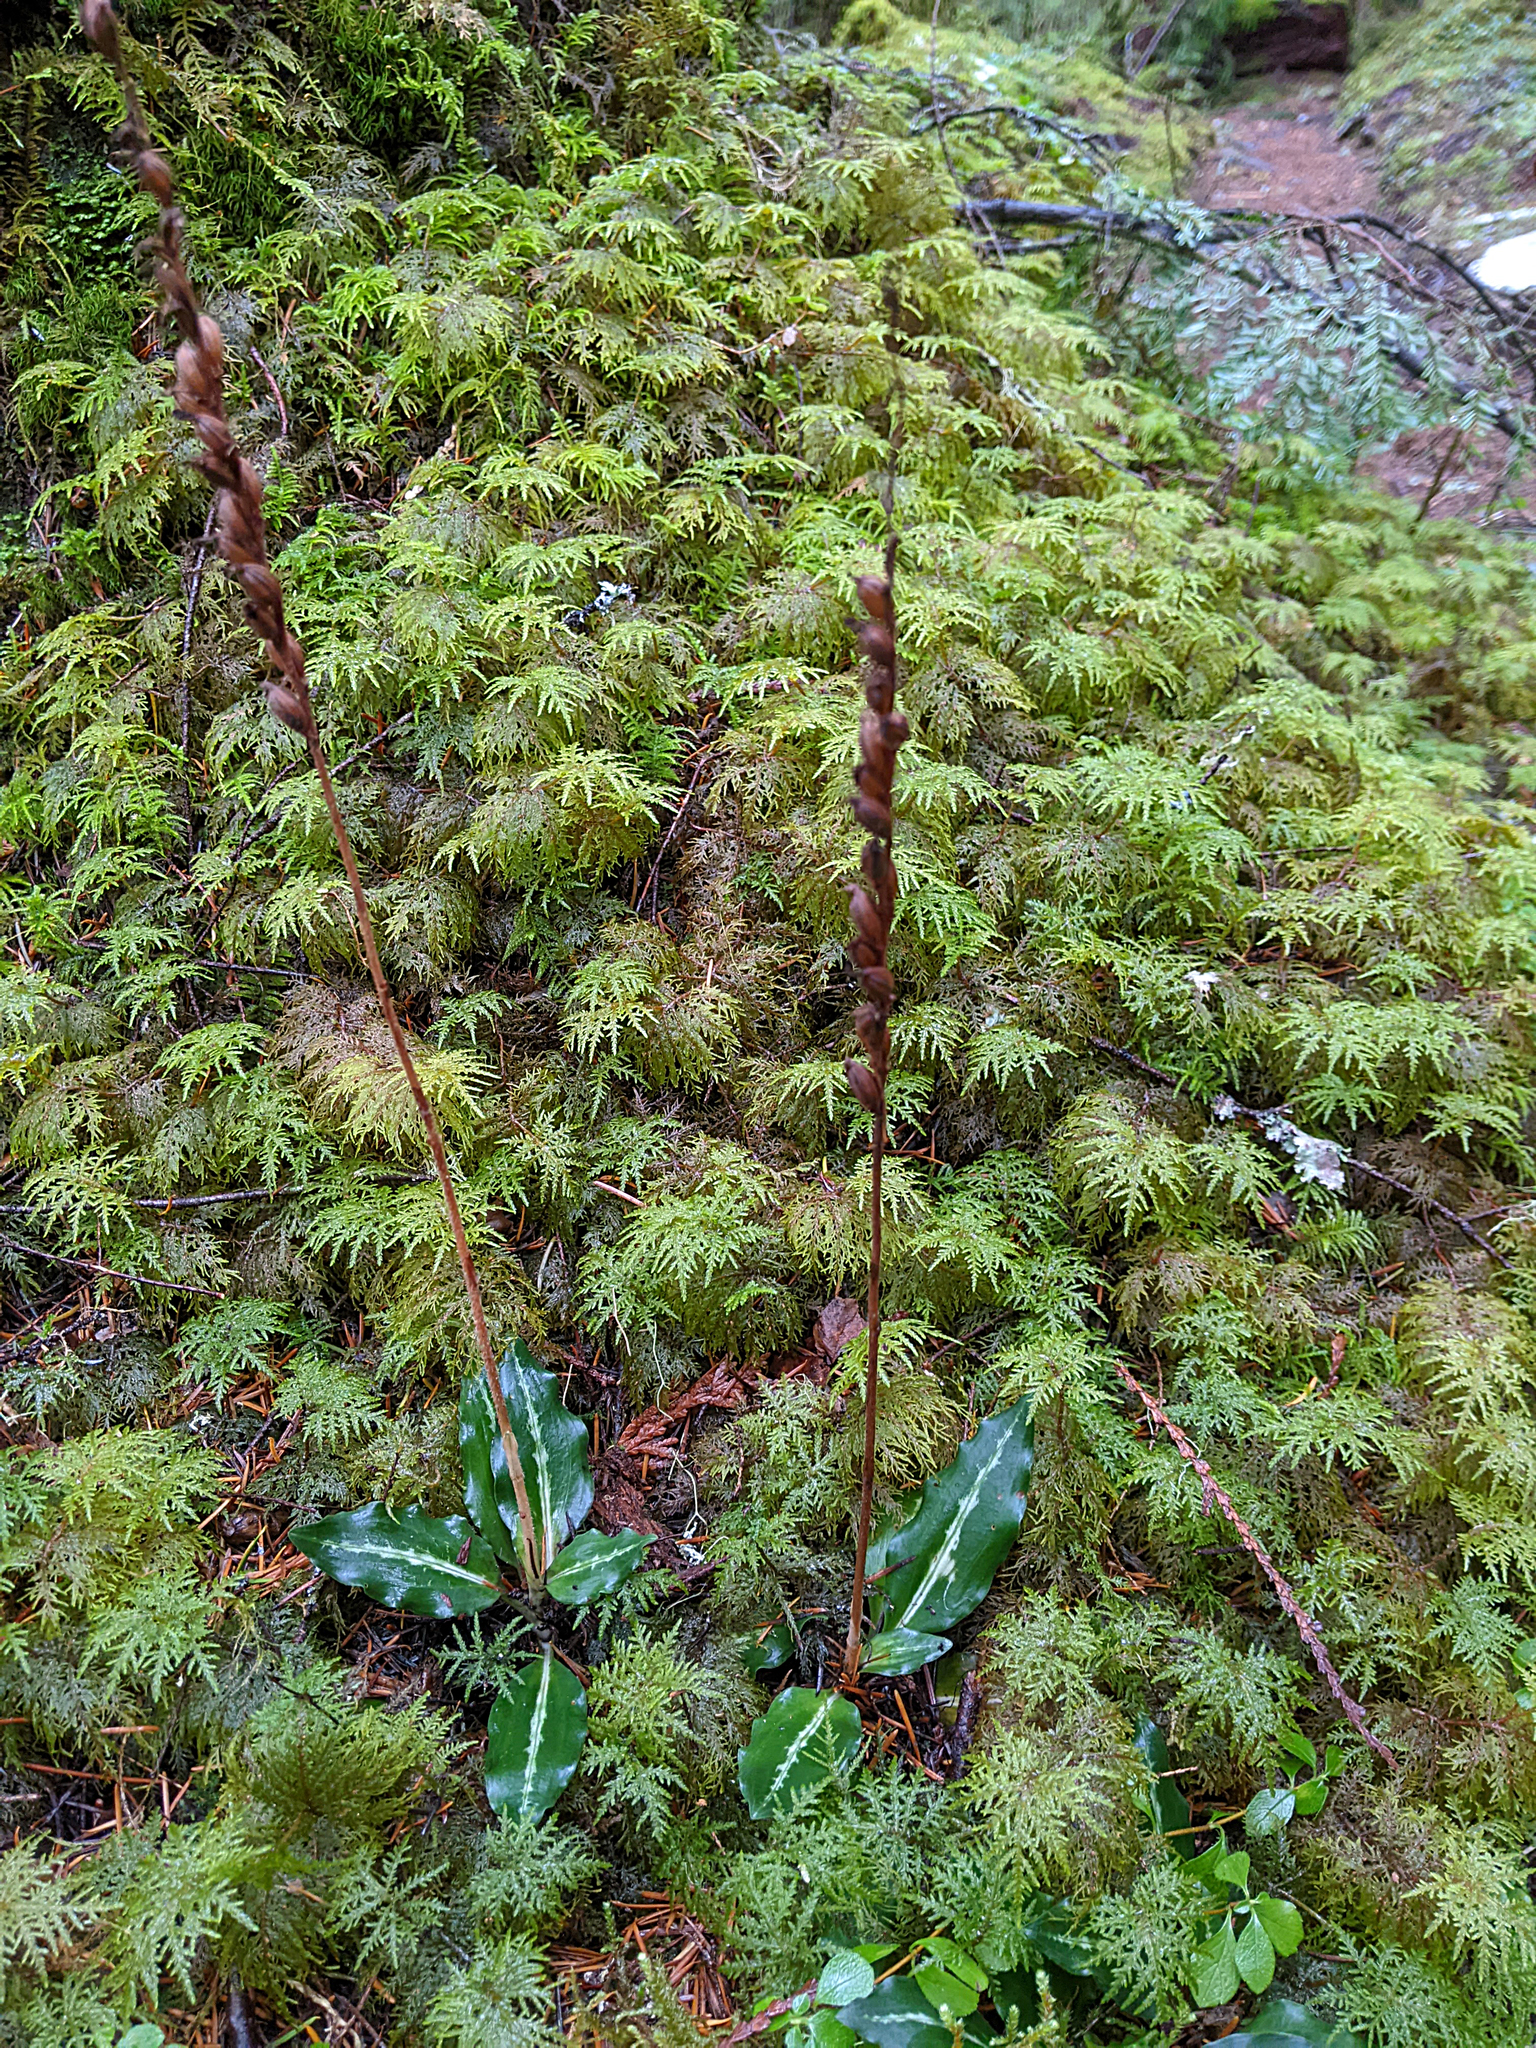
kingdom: Plantae
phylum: Tracheophyta
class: Liliopsida
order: Asparagales
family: Orchidaceae
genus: Goodyera
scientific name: Goodyera oblongifolia
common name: Giant rattlesnake-plantain
